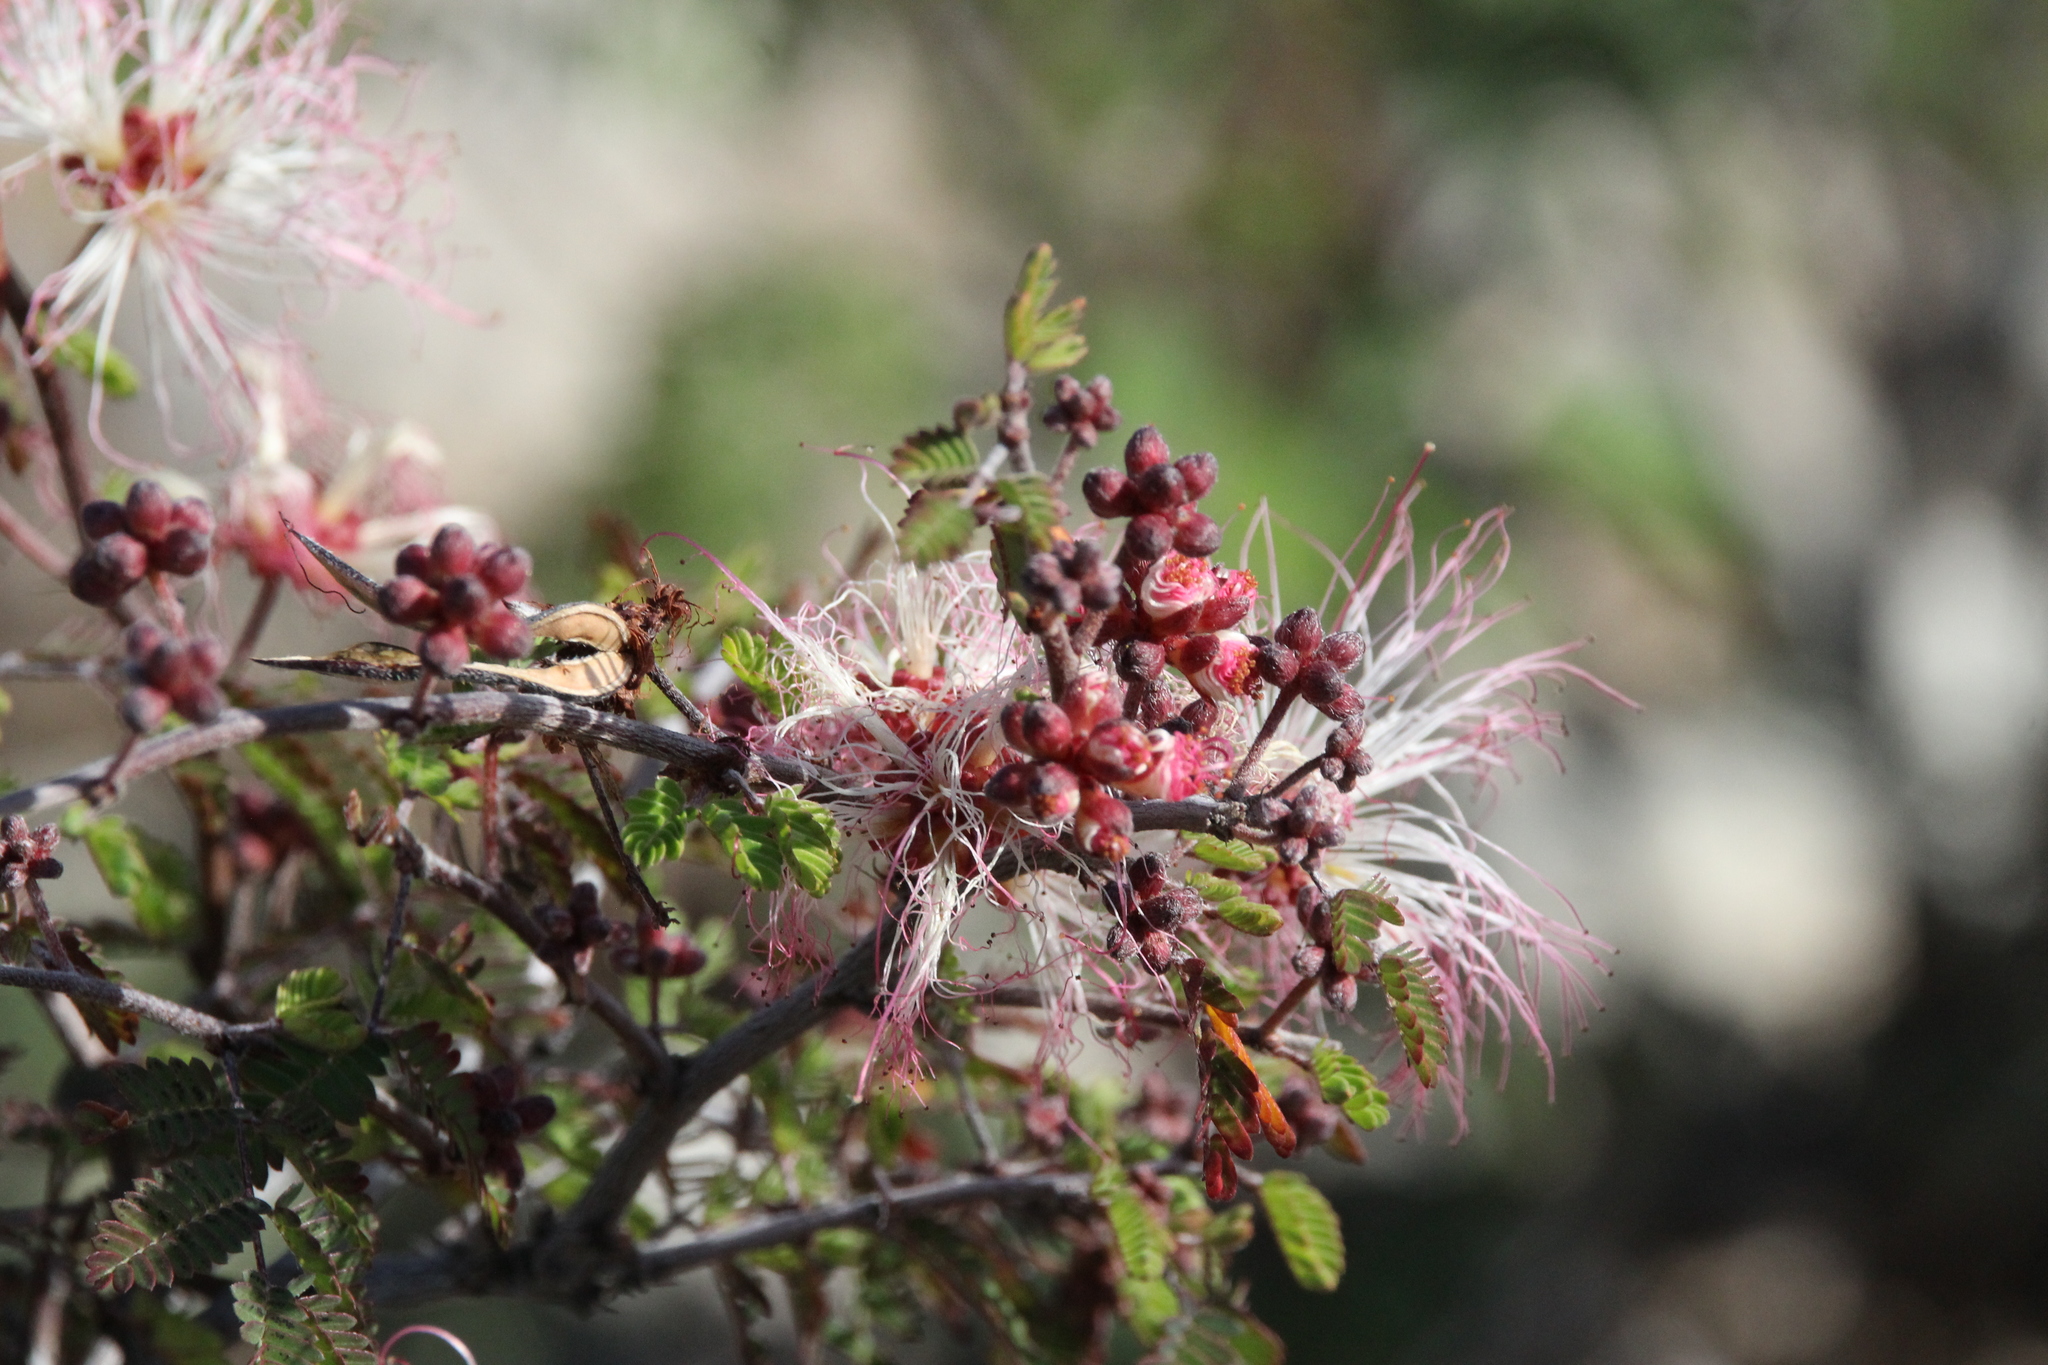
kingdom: Plantae
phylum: Tracheophyta
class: Magnoliopsida
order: Fabales
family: Fabaceae
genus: Calliandra
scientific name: Calliandra eriophylla
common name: Fairy-duster
